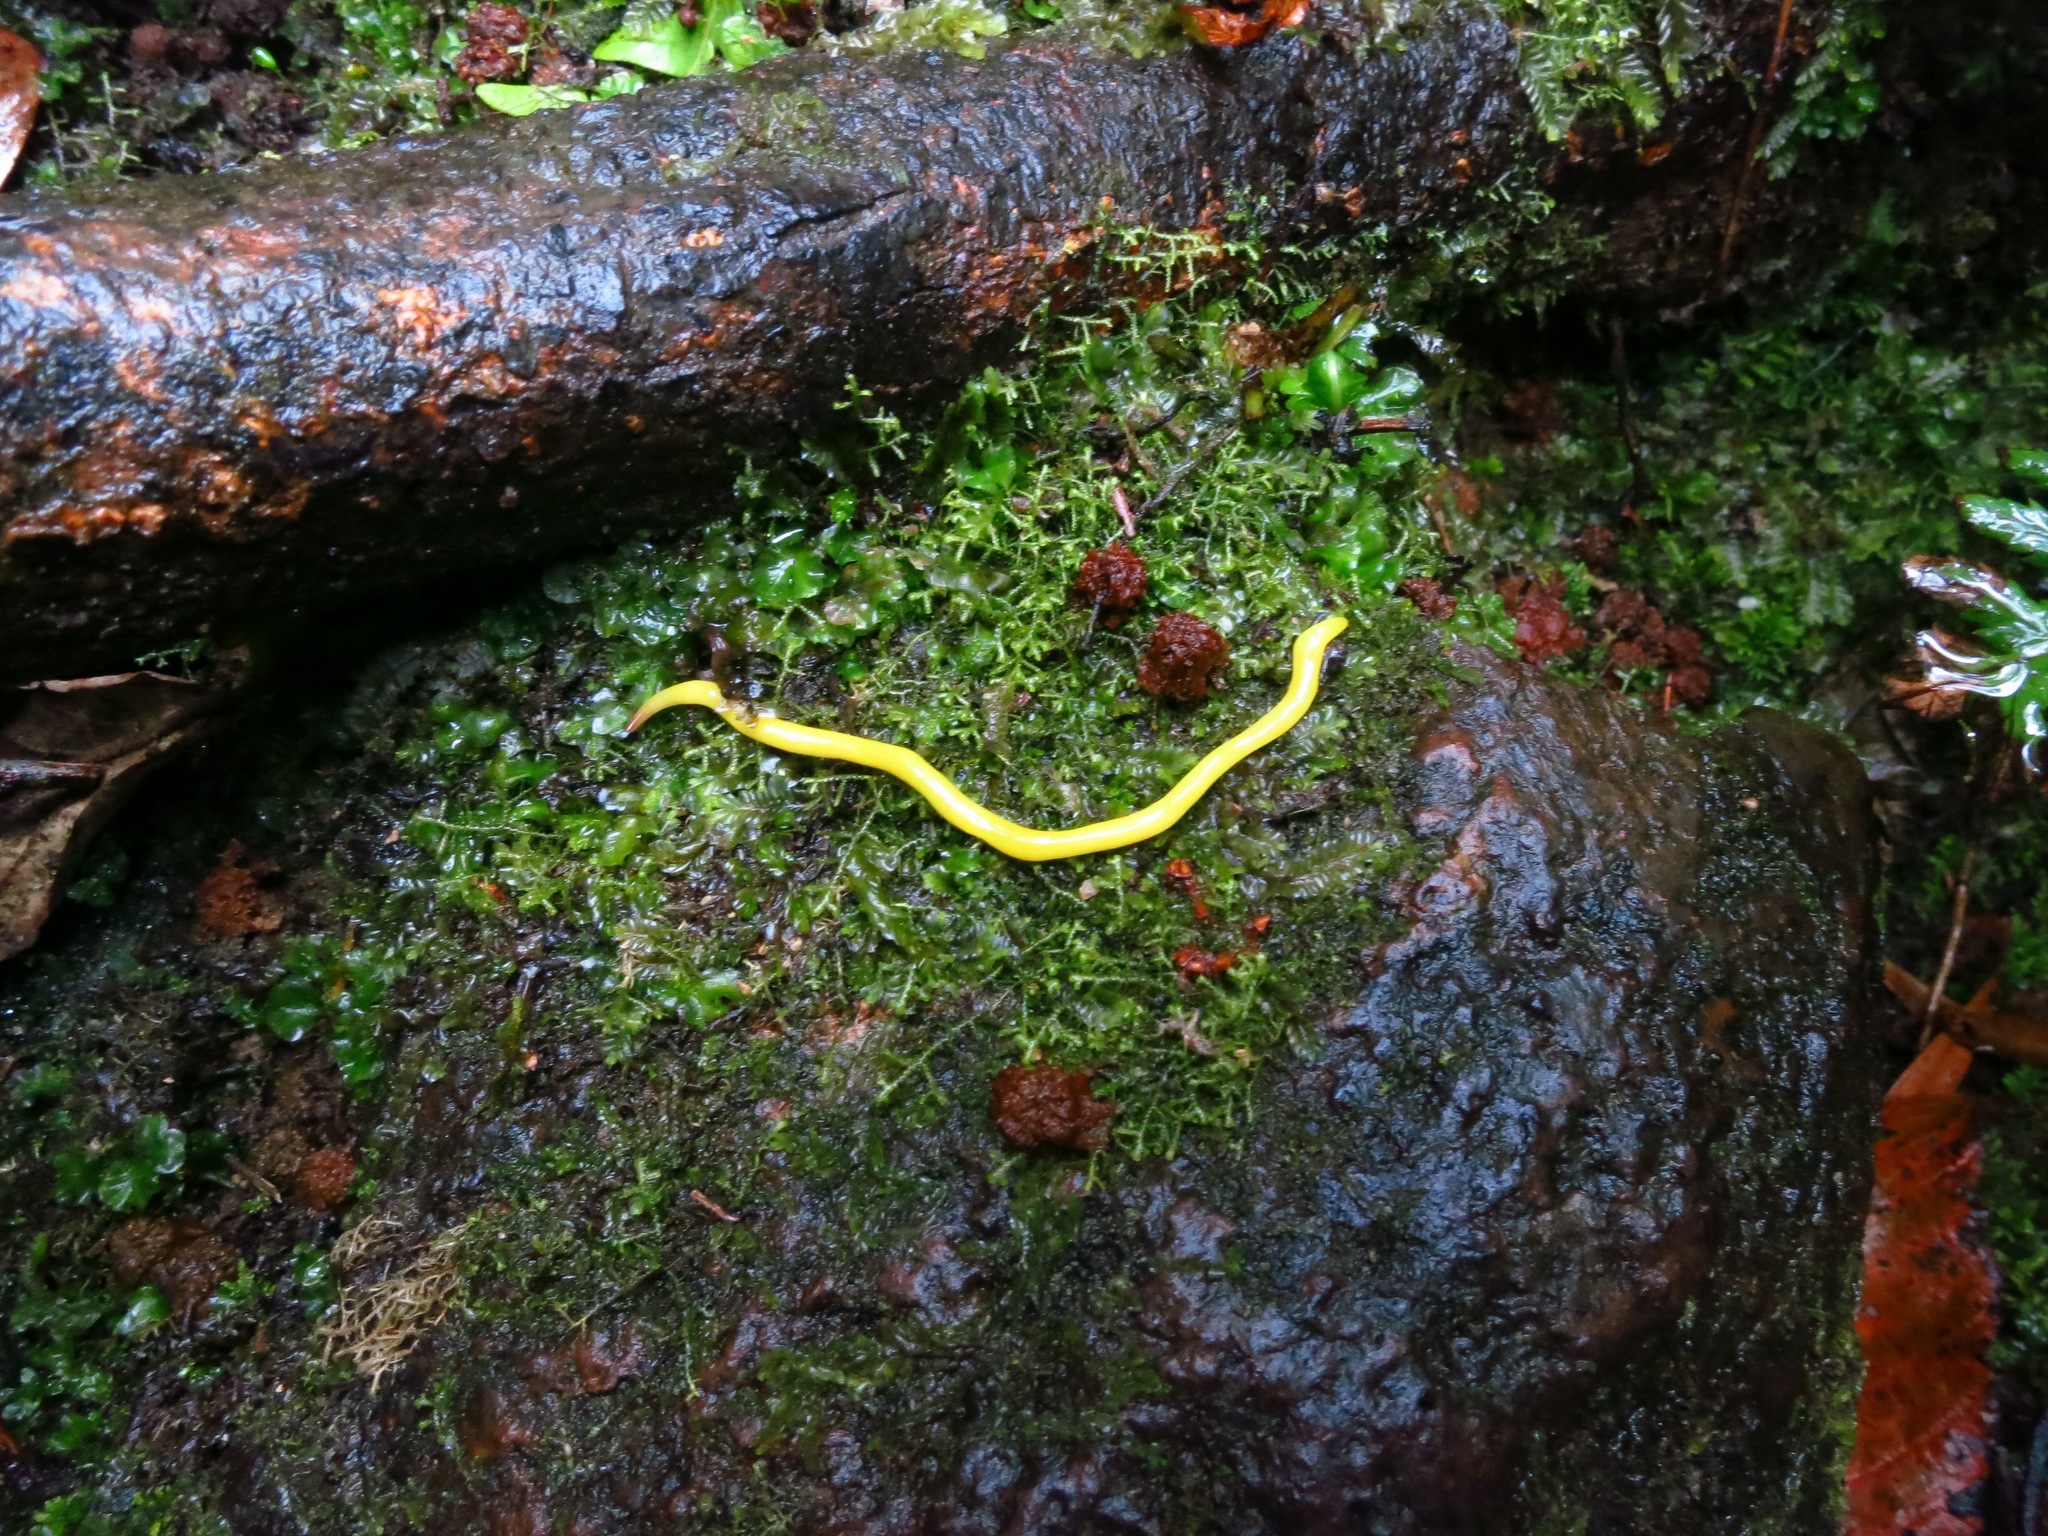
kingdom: Animalia
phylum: Platyhelminthes
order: Tricladida
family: Geoplanidae
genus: Fletchamia
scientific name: Fletchamia sugdeni
